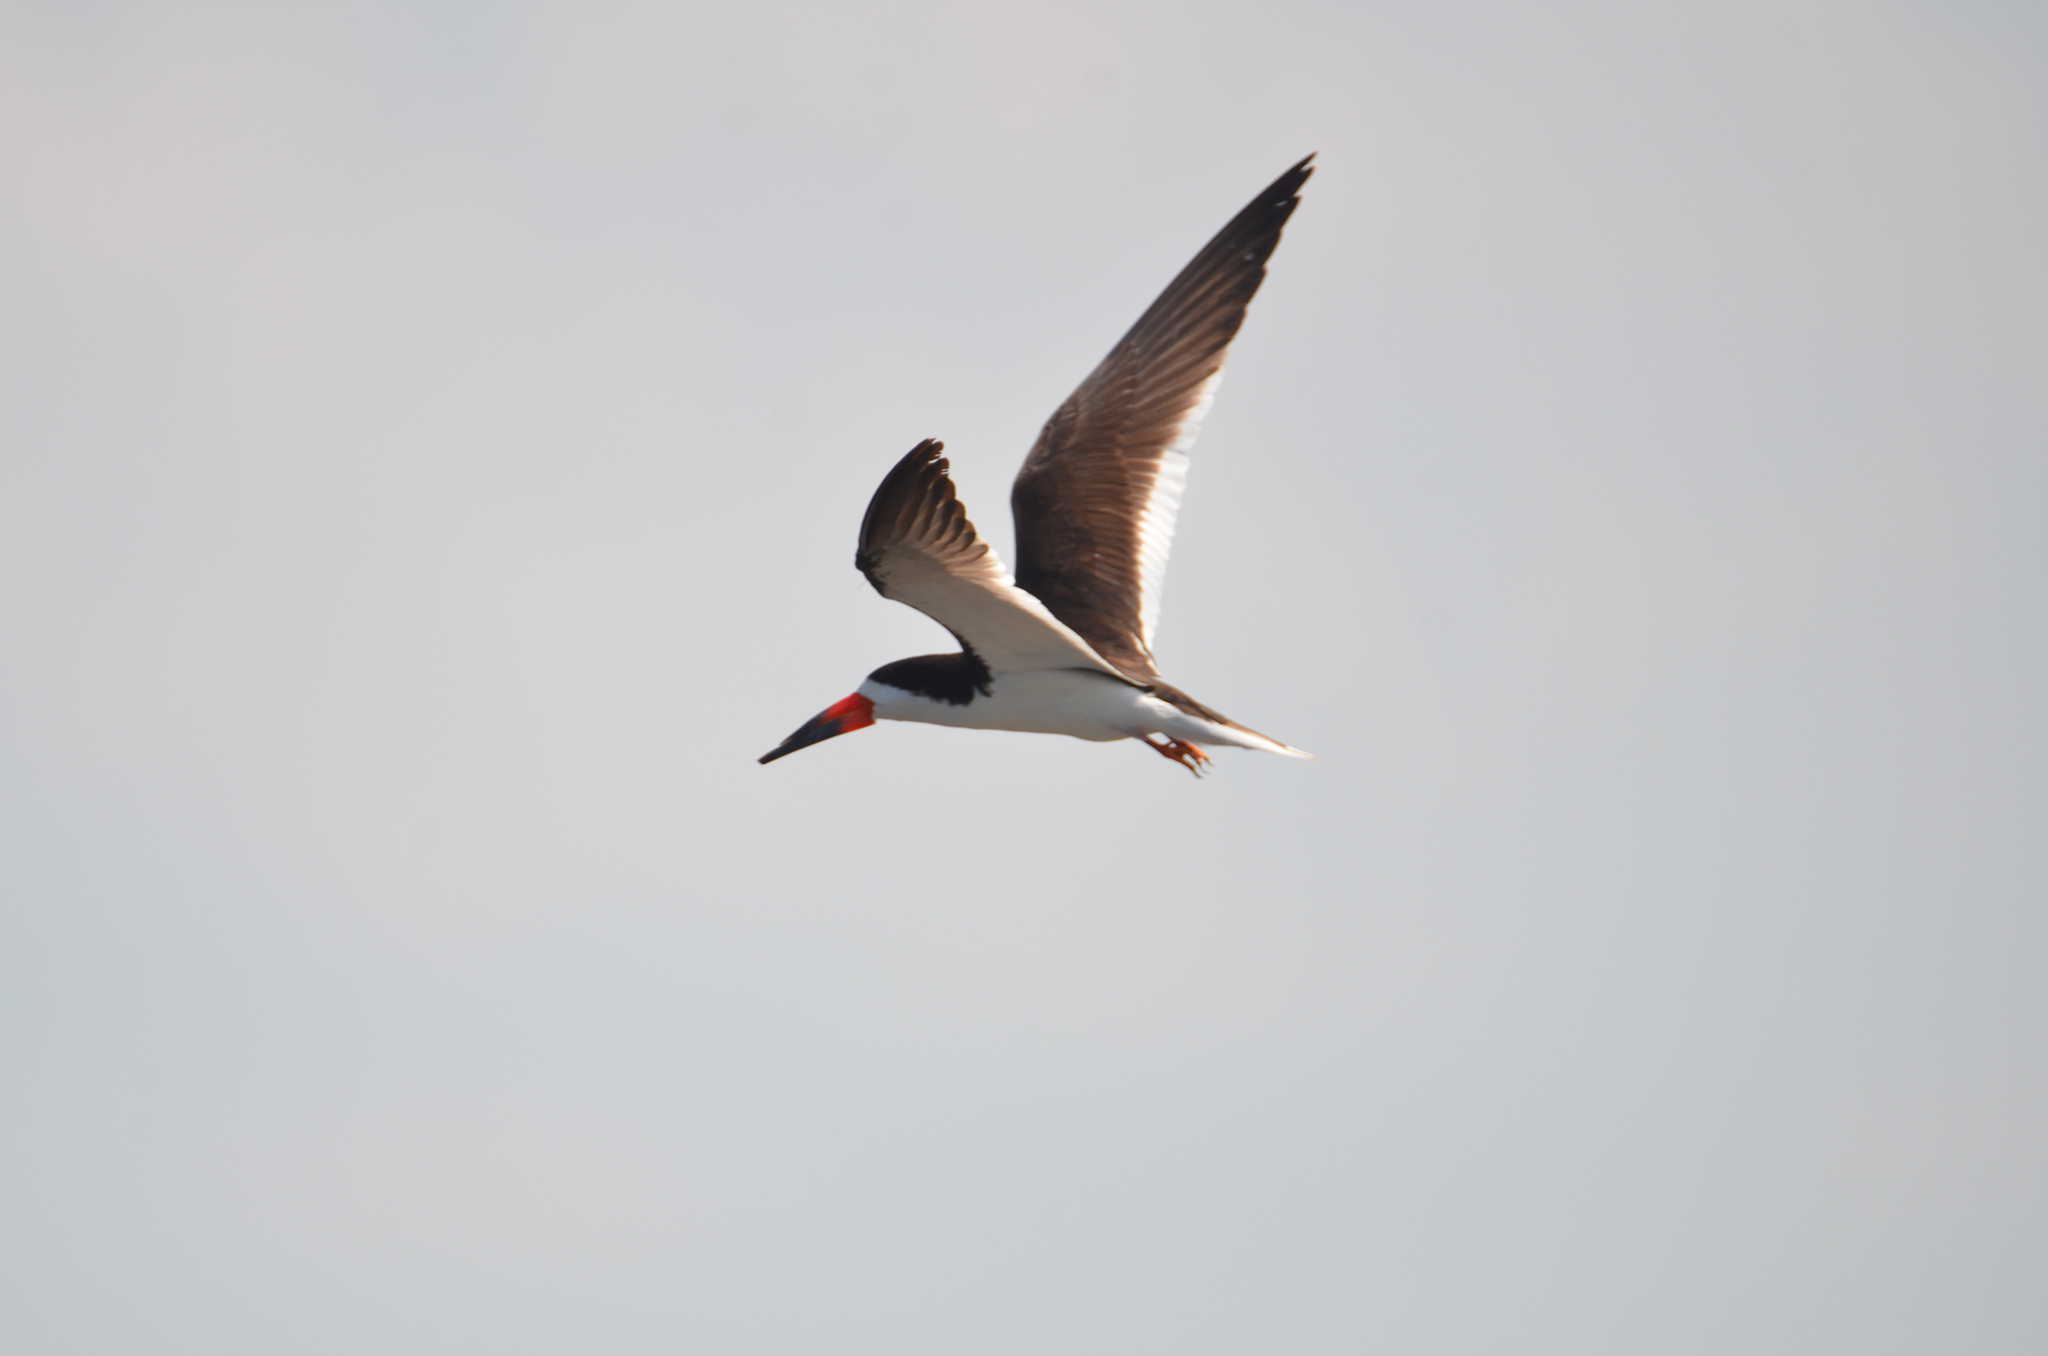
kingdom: Animalia
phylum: Chordata
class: Aves
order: Charadriiformes
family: Laridae
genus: Rynchops
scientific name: Rynchops niger
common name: Black skimmer
